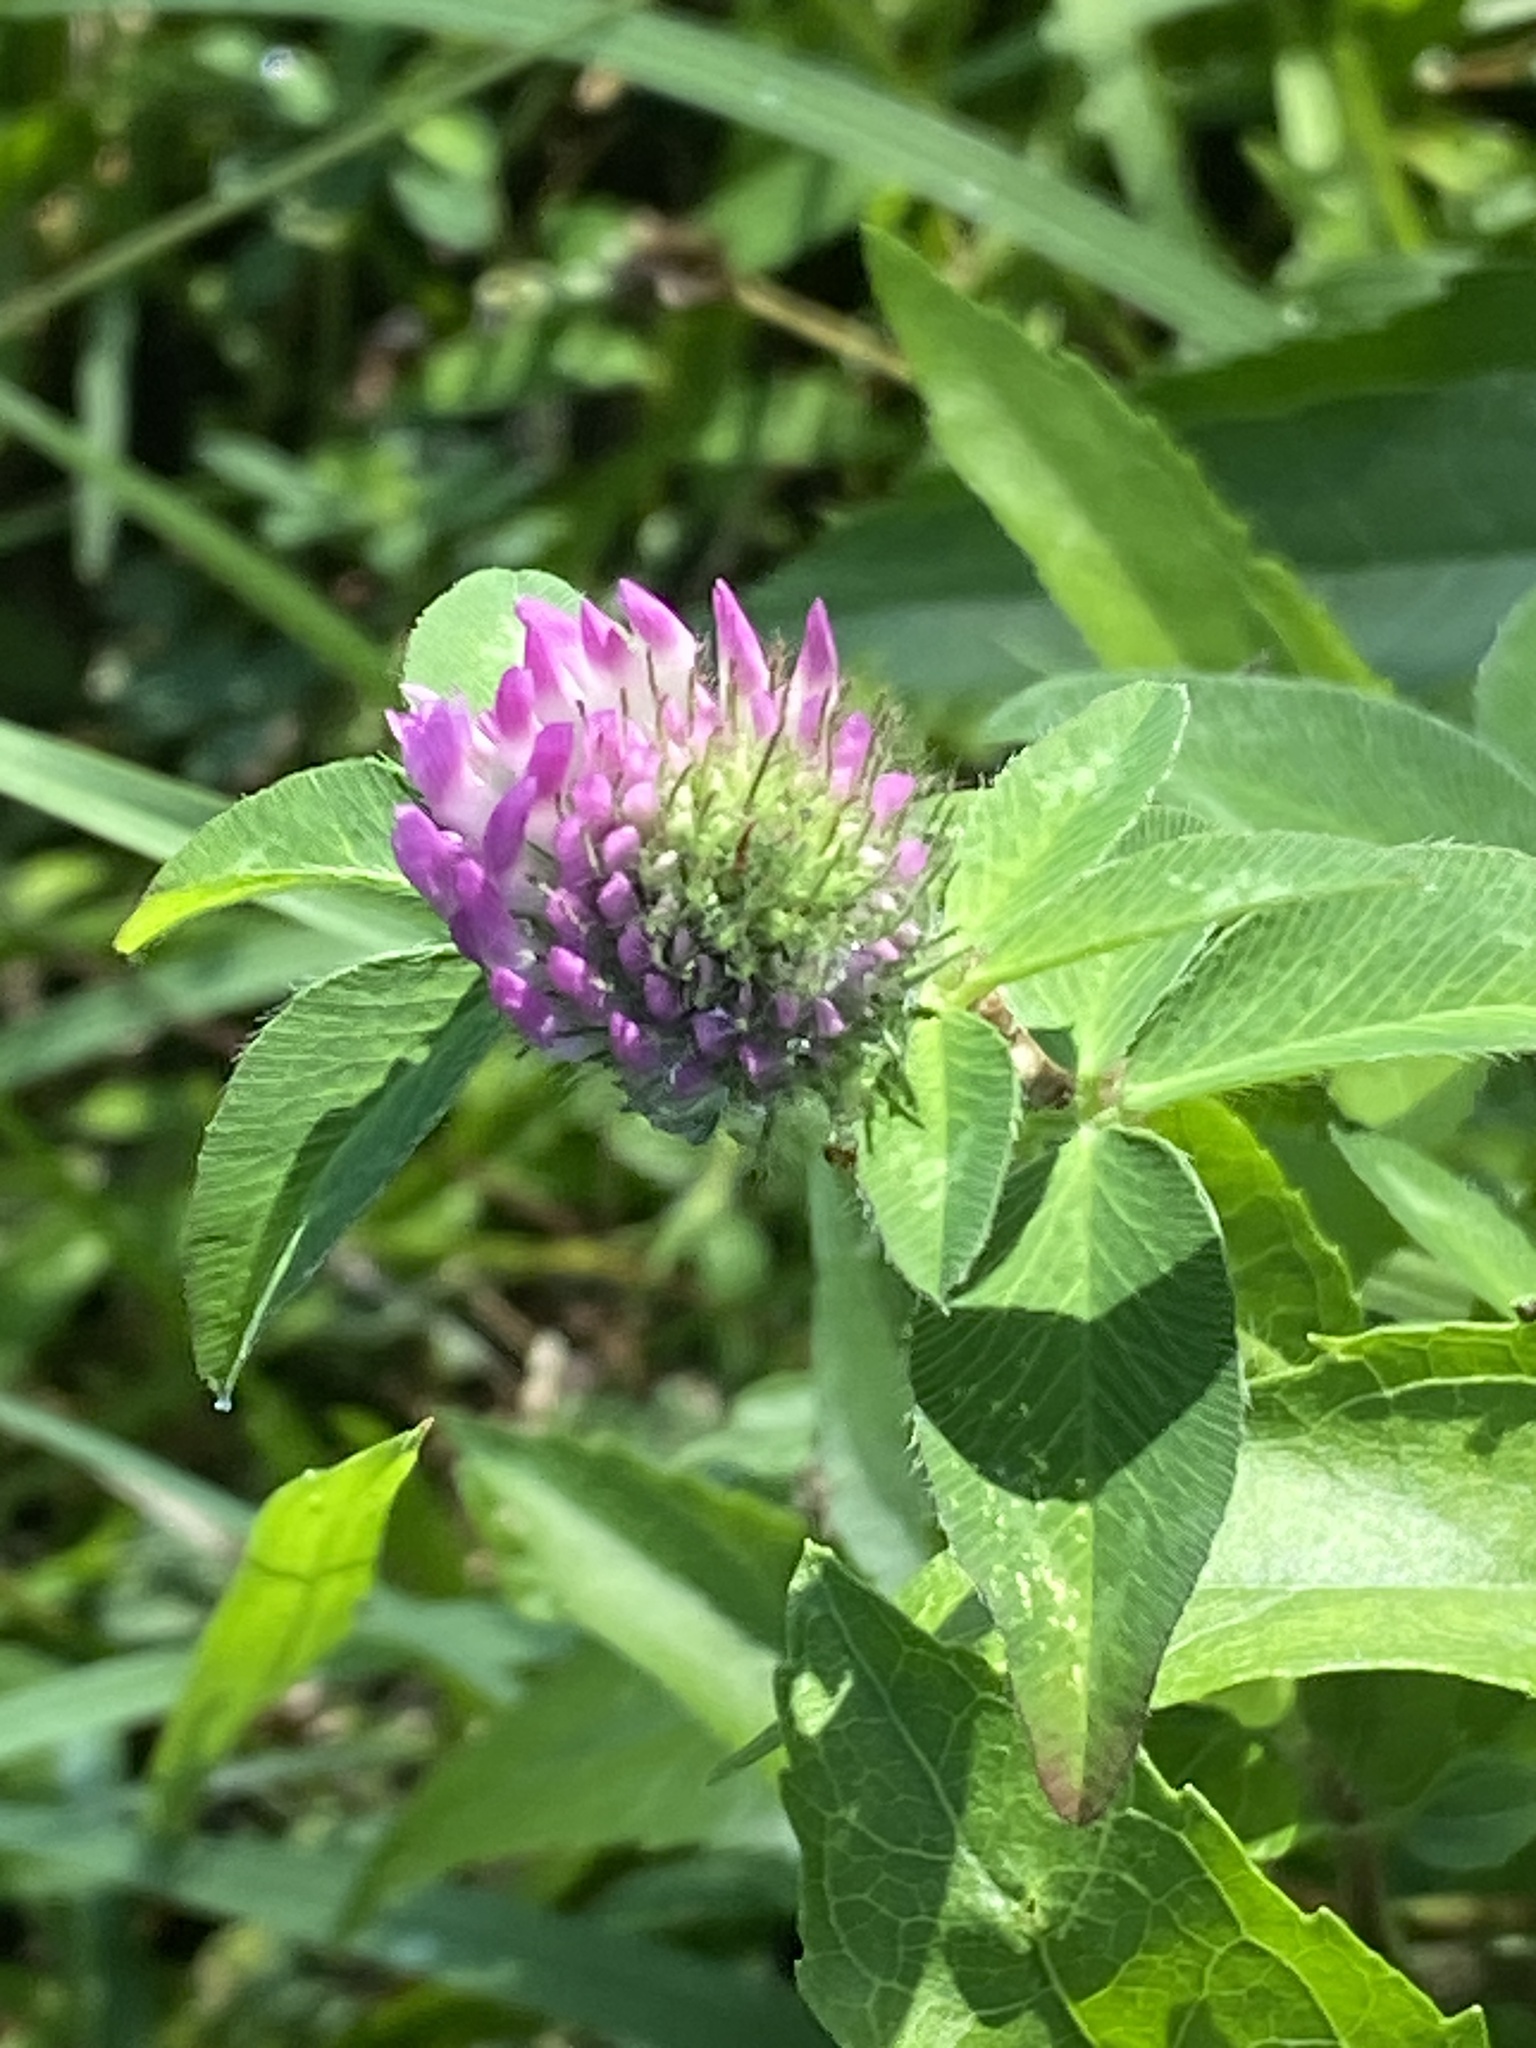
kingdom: Plantae
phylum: Tracheophyta
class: Magnoliopsida
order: Fabales
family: Fabaceae
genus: Trifolium
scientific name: Trifolium pratense
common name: Red clover
